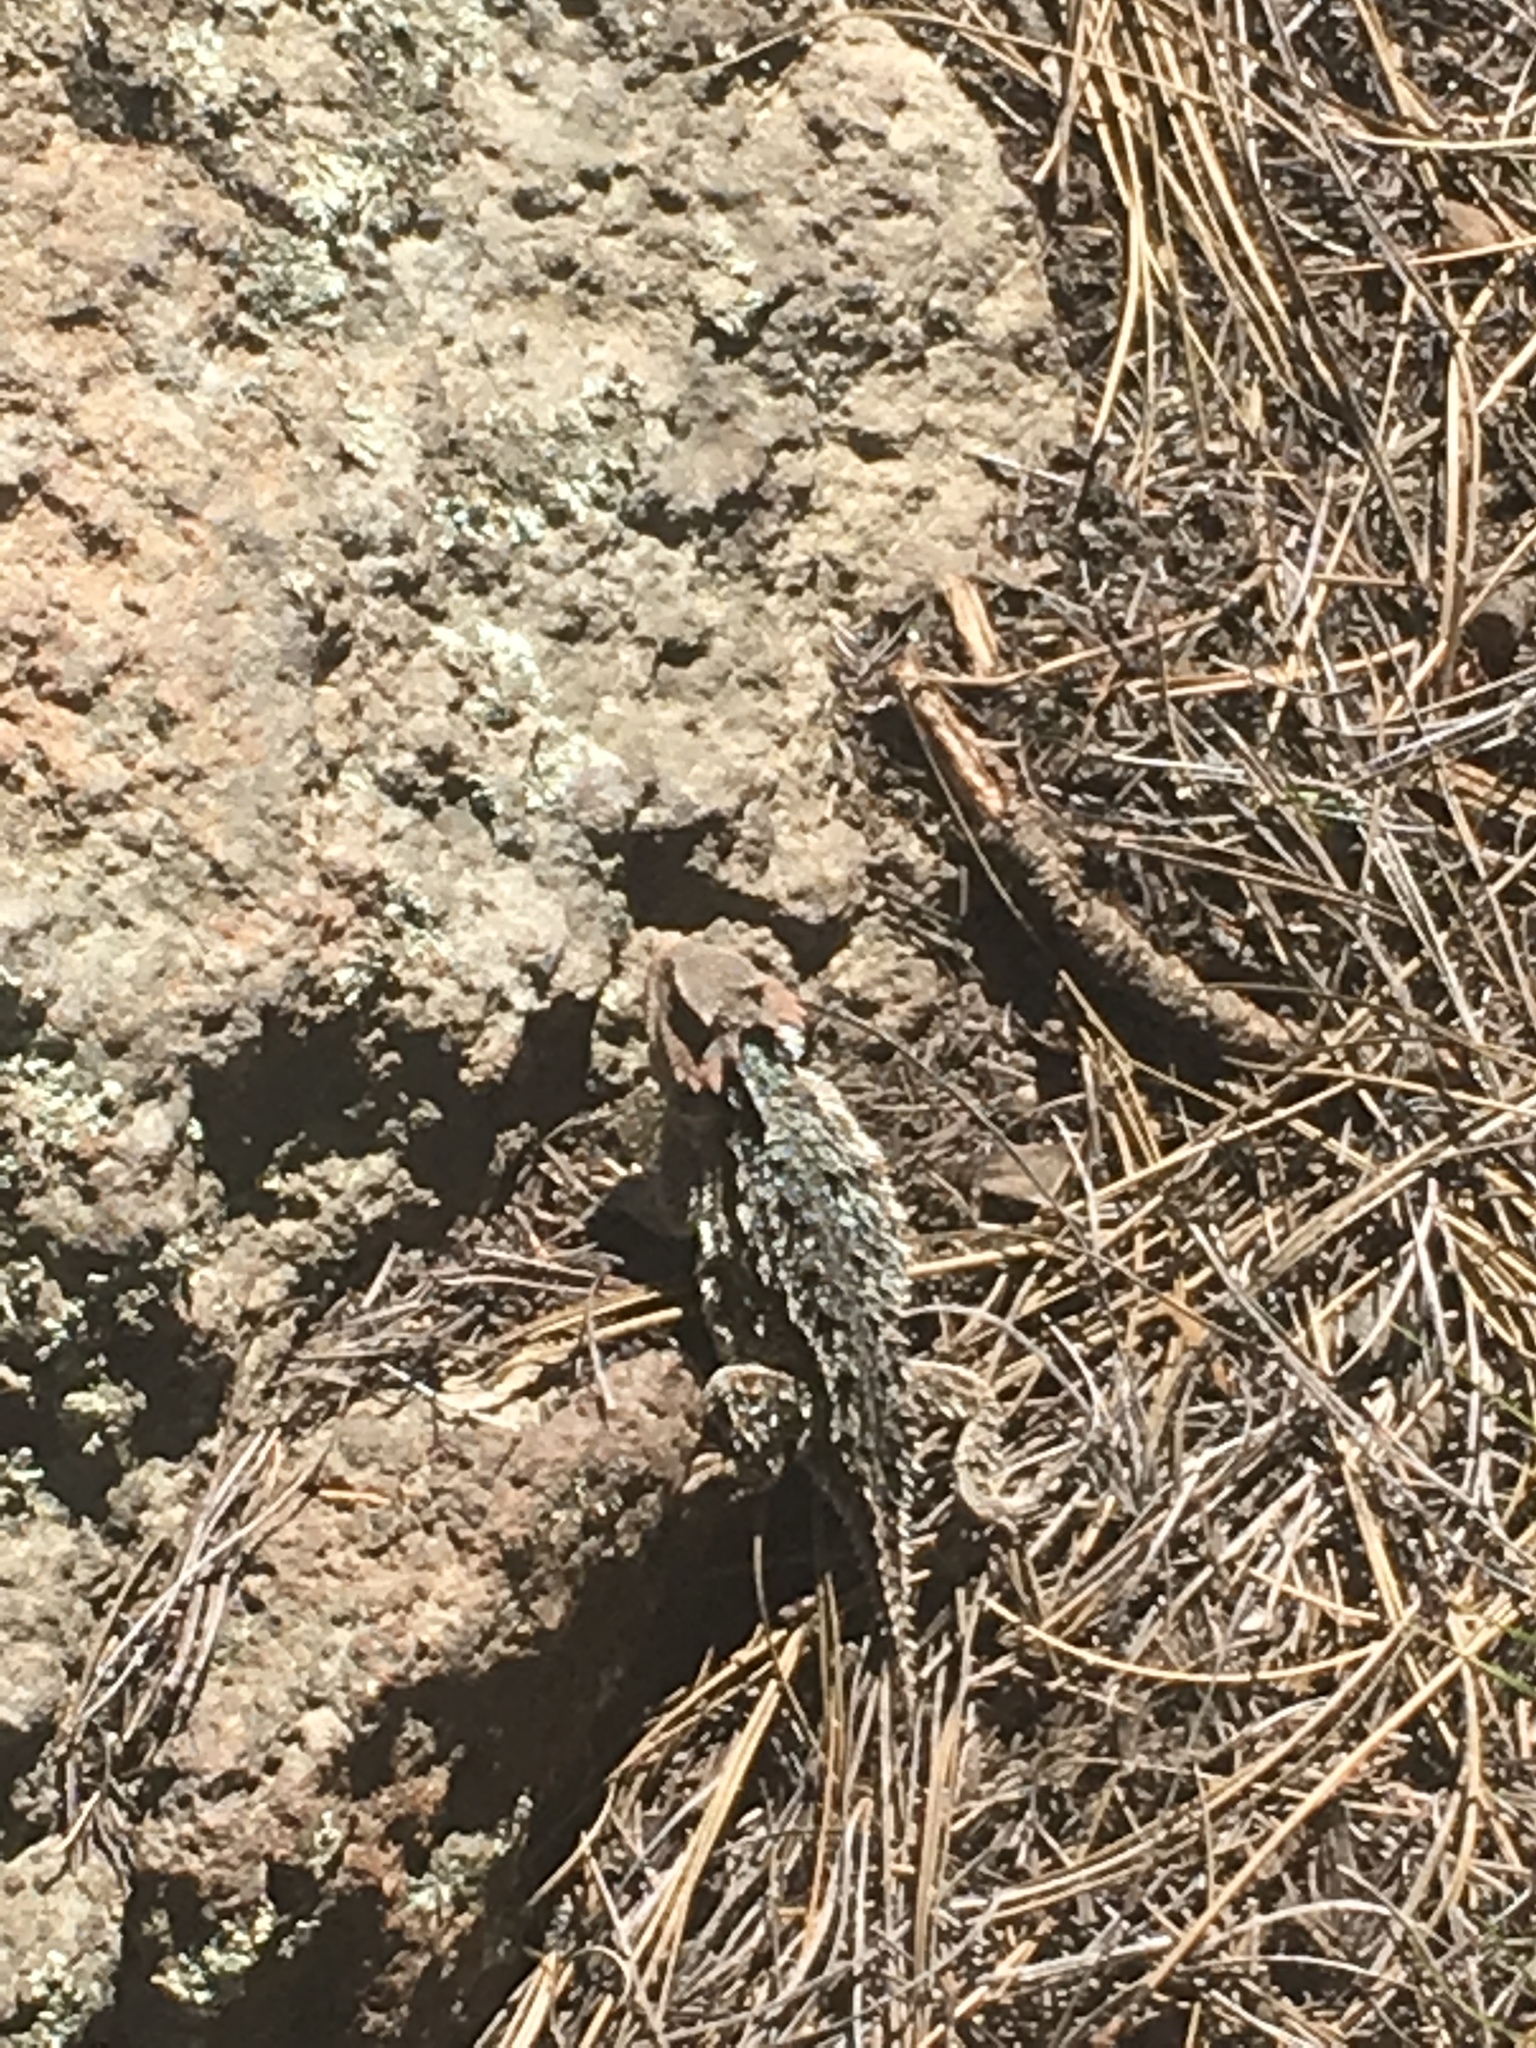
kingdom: Animalia
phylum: Chordata
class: Squamata
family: Phrynosomatidae
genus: Phrynosoma
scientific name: Phrynosoma hernandesi
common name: Greater short-horned lizard
